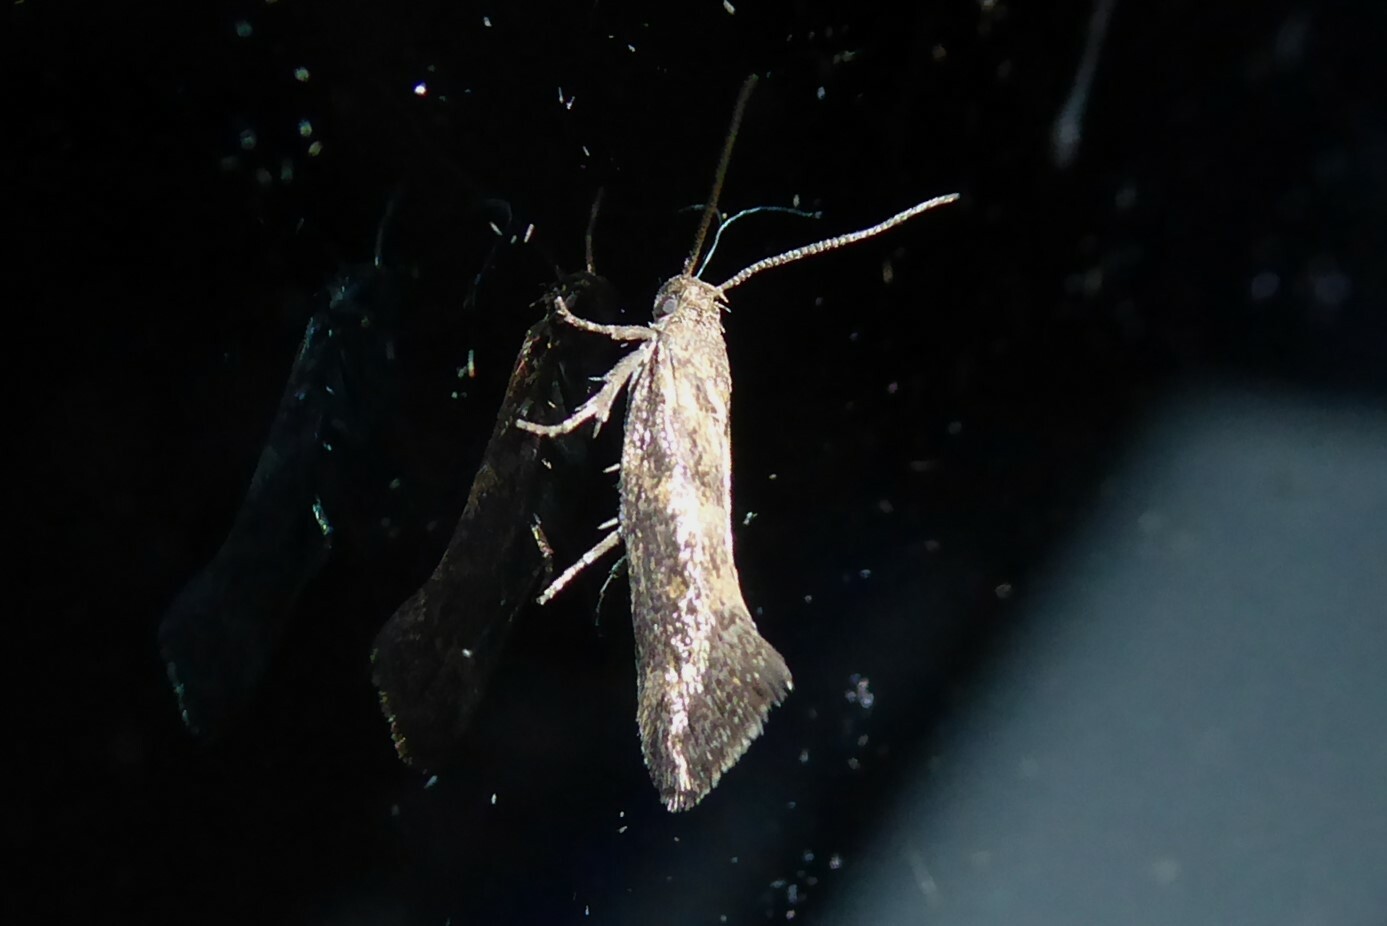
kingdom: Animalia
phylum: Arthropoda
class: Insecta
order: Lepidoptera
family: Oecophoridae
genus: Tingena
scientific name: Tingena siderodeta
